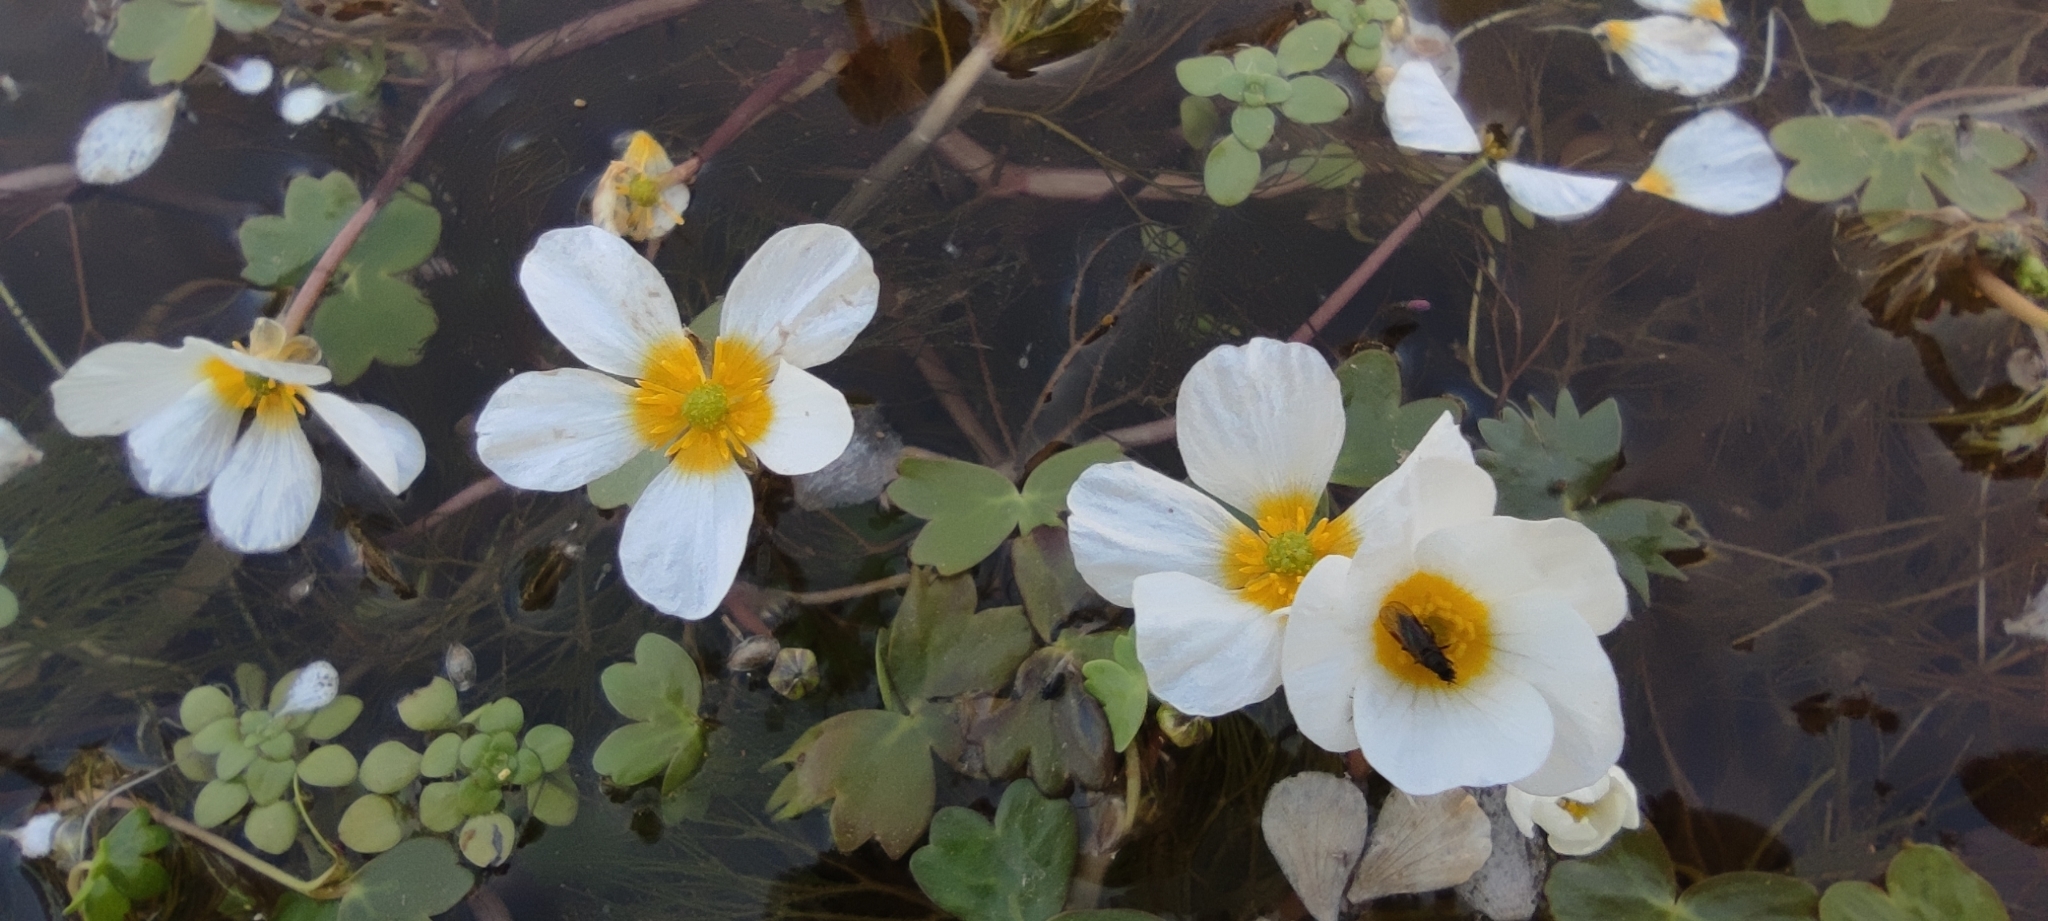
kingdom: Plantae
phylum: Tracheophyta
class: Magnoliopsida
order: Ranunculales
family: Ranunculaceae
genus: Ranunculus
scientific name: Ranunculus peltatus
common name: Pond water-crowfoot
